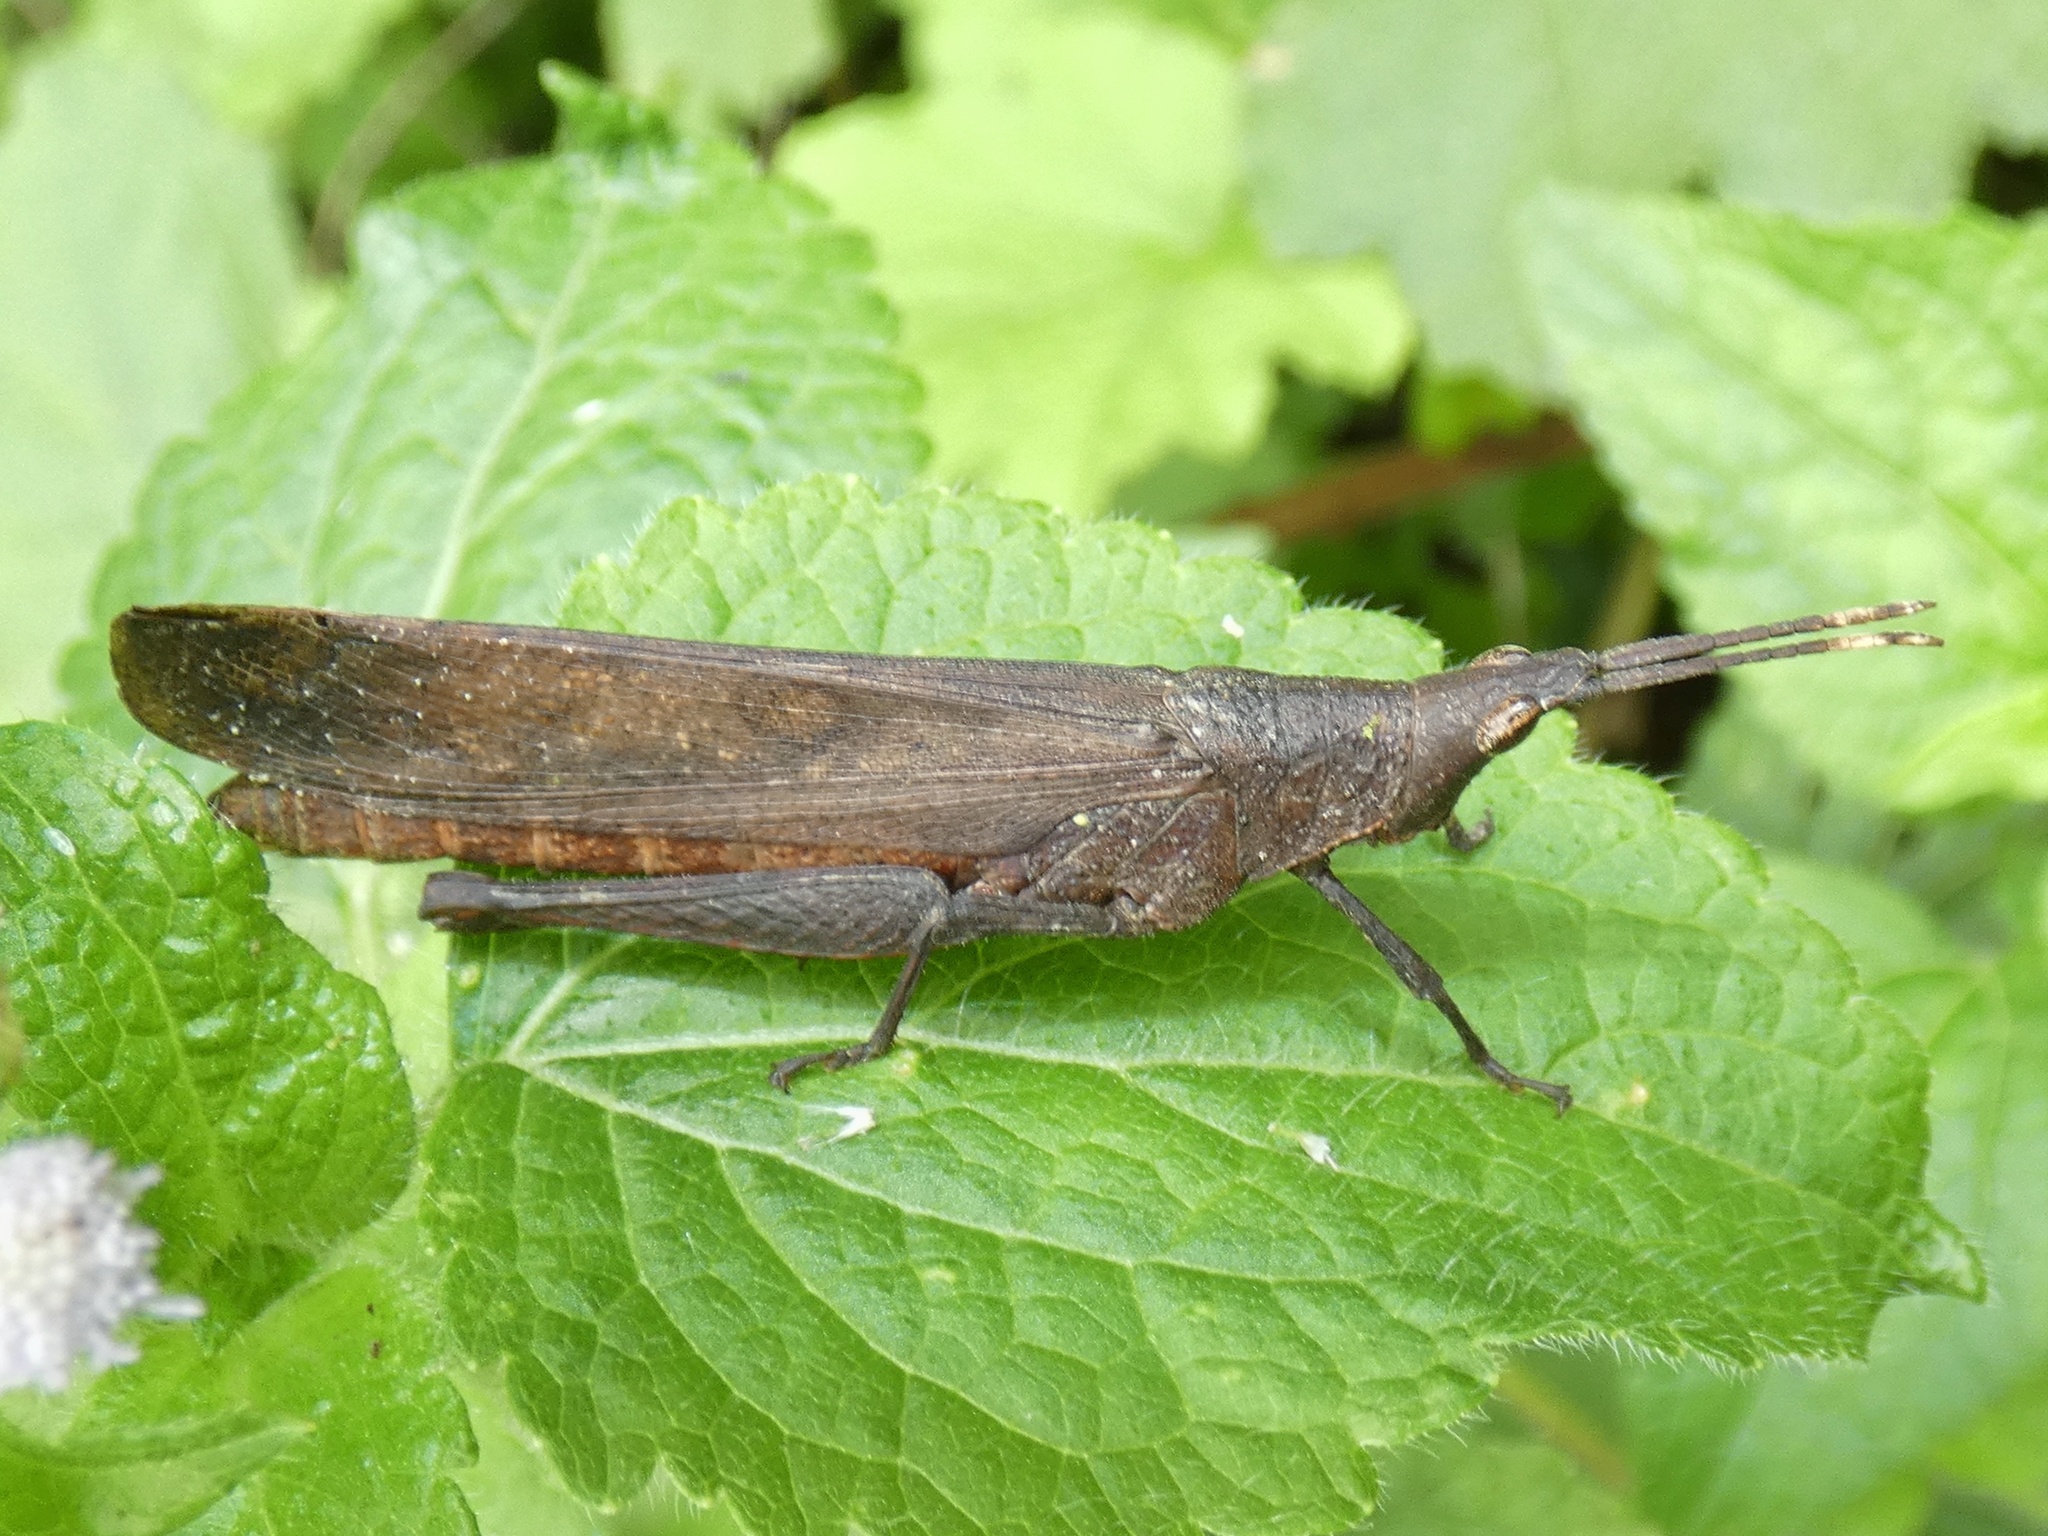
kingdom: Animalia
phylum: Arthropoda
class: Insecta
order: Orthoptera
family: Pyrgomorphidae
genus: Desmoptera
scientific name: Desmoptera truncatipennis
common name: Large forest pyrgomorph
